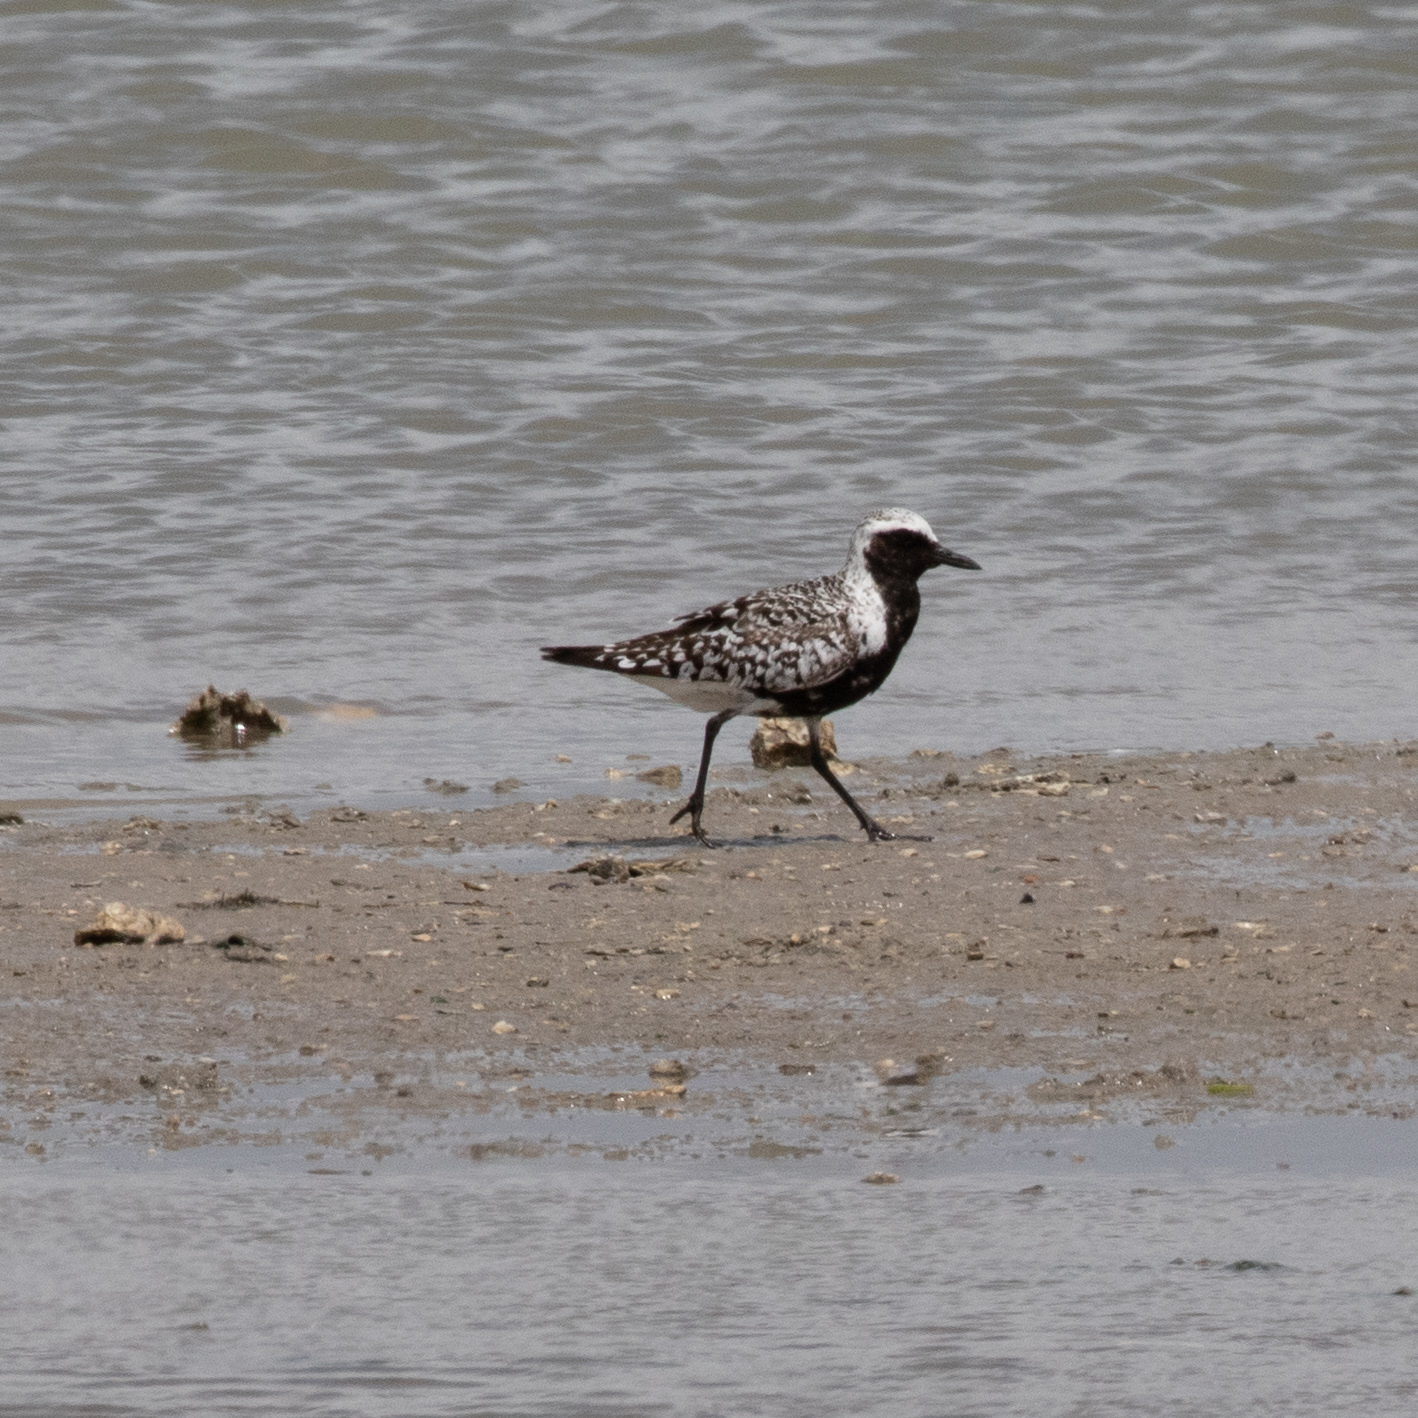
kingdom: Animalia
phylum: Chordata
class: Aves
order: Charadriiformes
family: Charadriidae
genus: Pluvialis
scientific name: Pluvialis squatarola
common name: Grey plover
